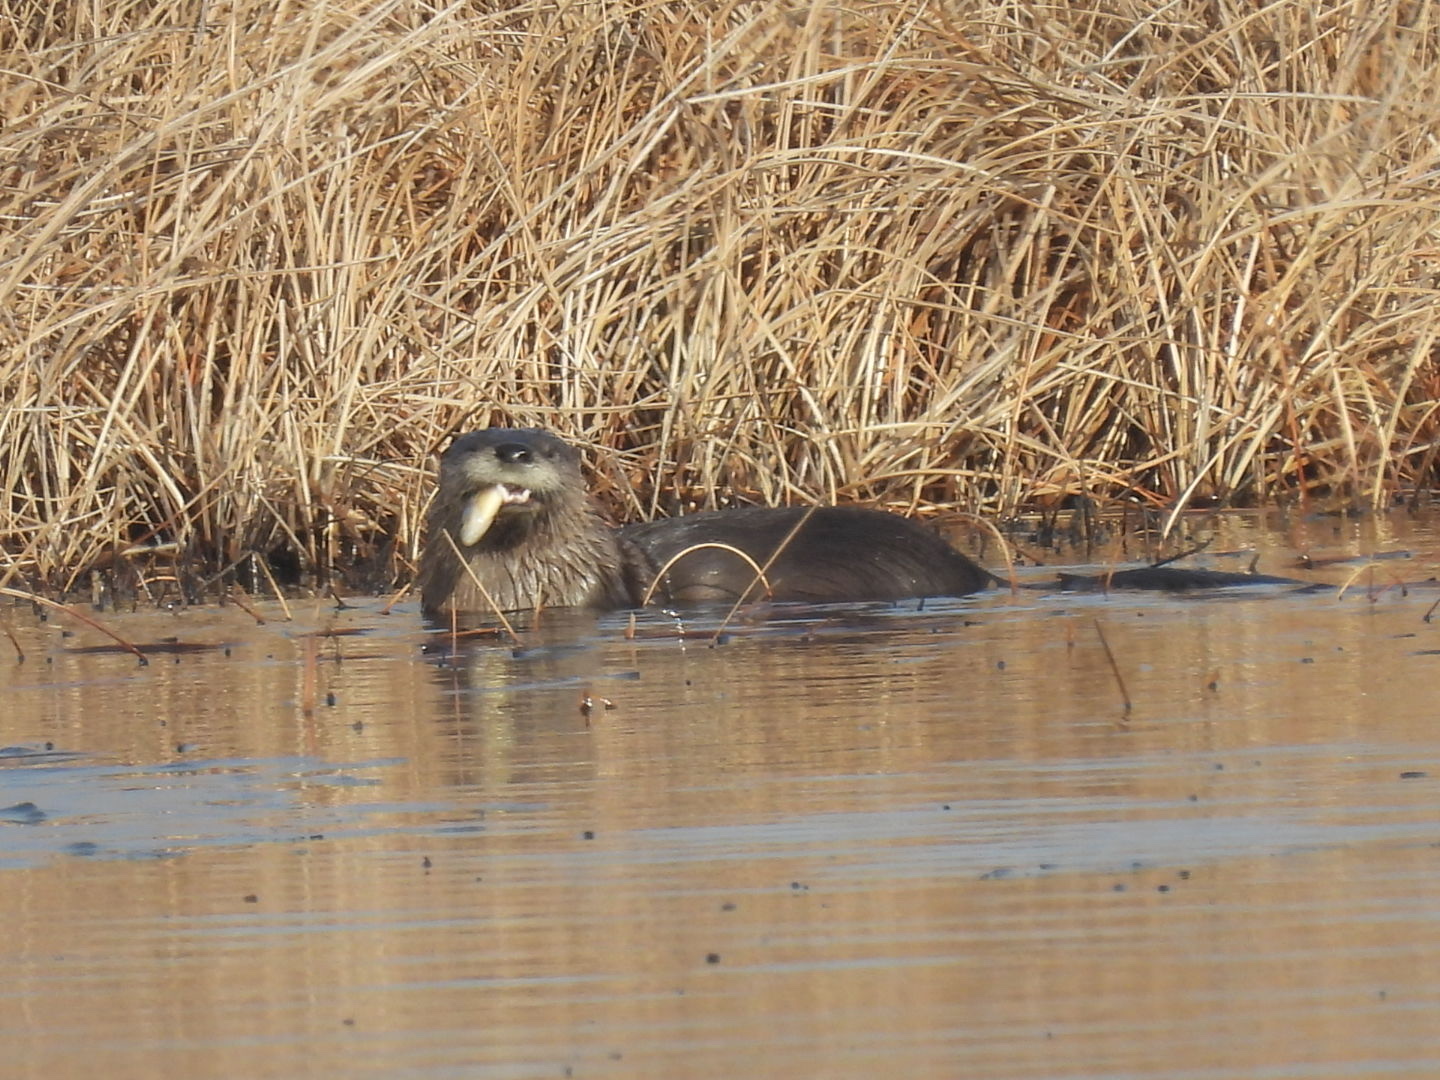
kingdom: Animalia
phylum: Chordata
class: Mammalia
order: Carnivora
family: Mustelidae
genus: Lontra
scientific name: Lontra canadensis
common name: North american river otter
